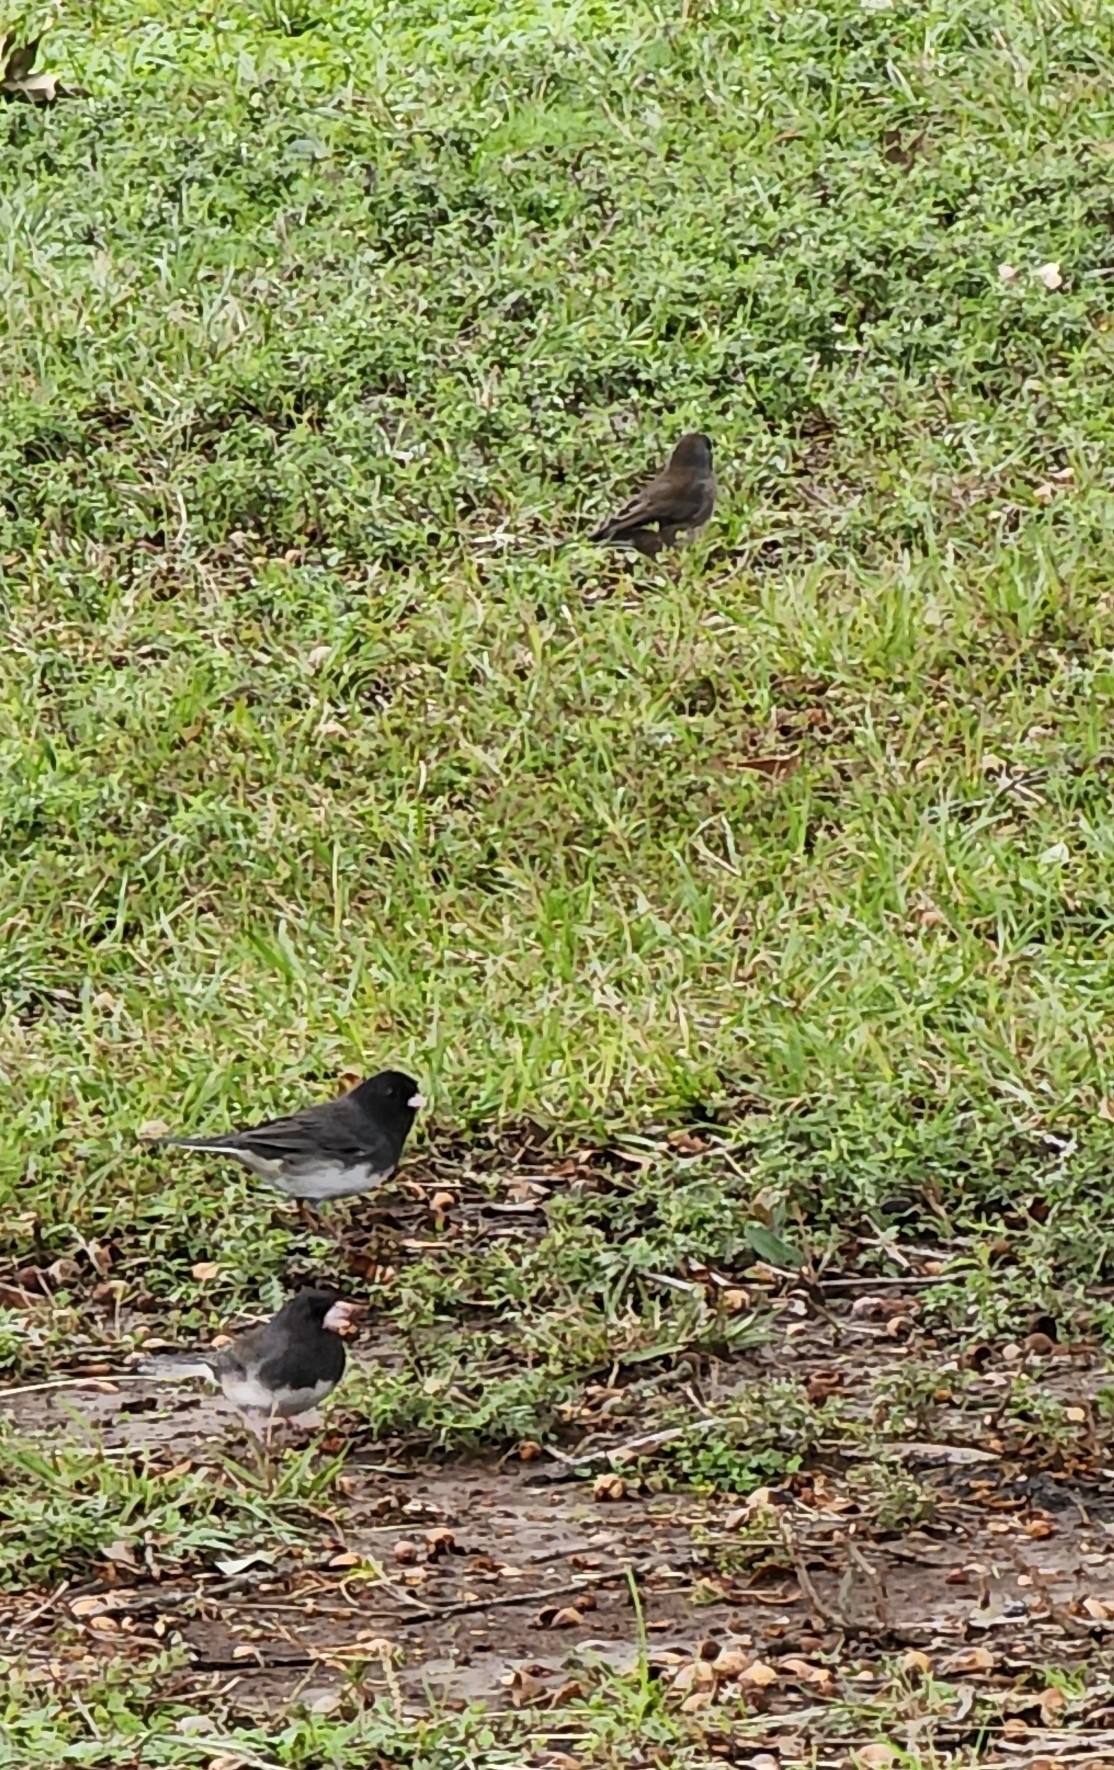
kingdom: Animalia
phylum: Chordata
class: Aves
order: Passeriformes
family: Passerellidae
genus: Junco
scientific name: Junco hyemalis
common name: Dark-eyed junco
